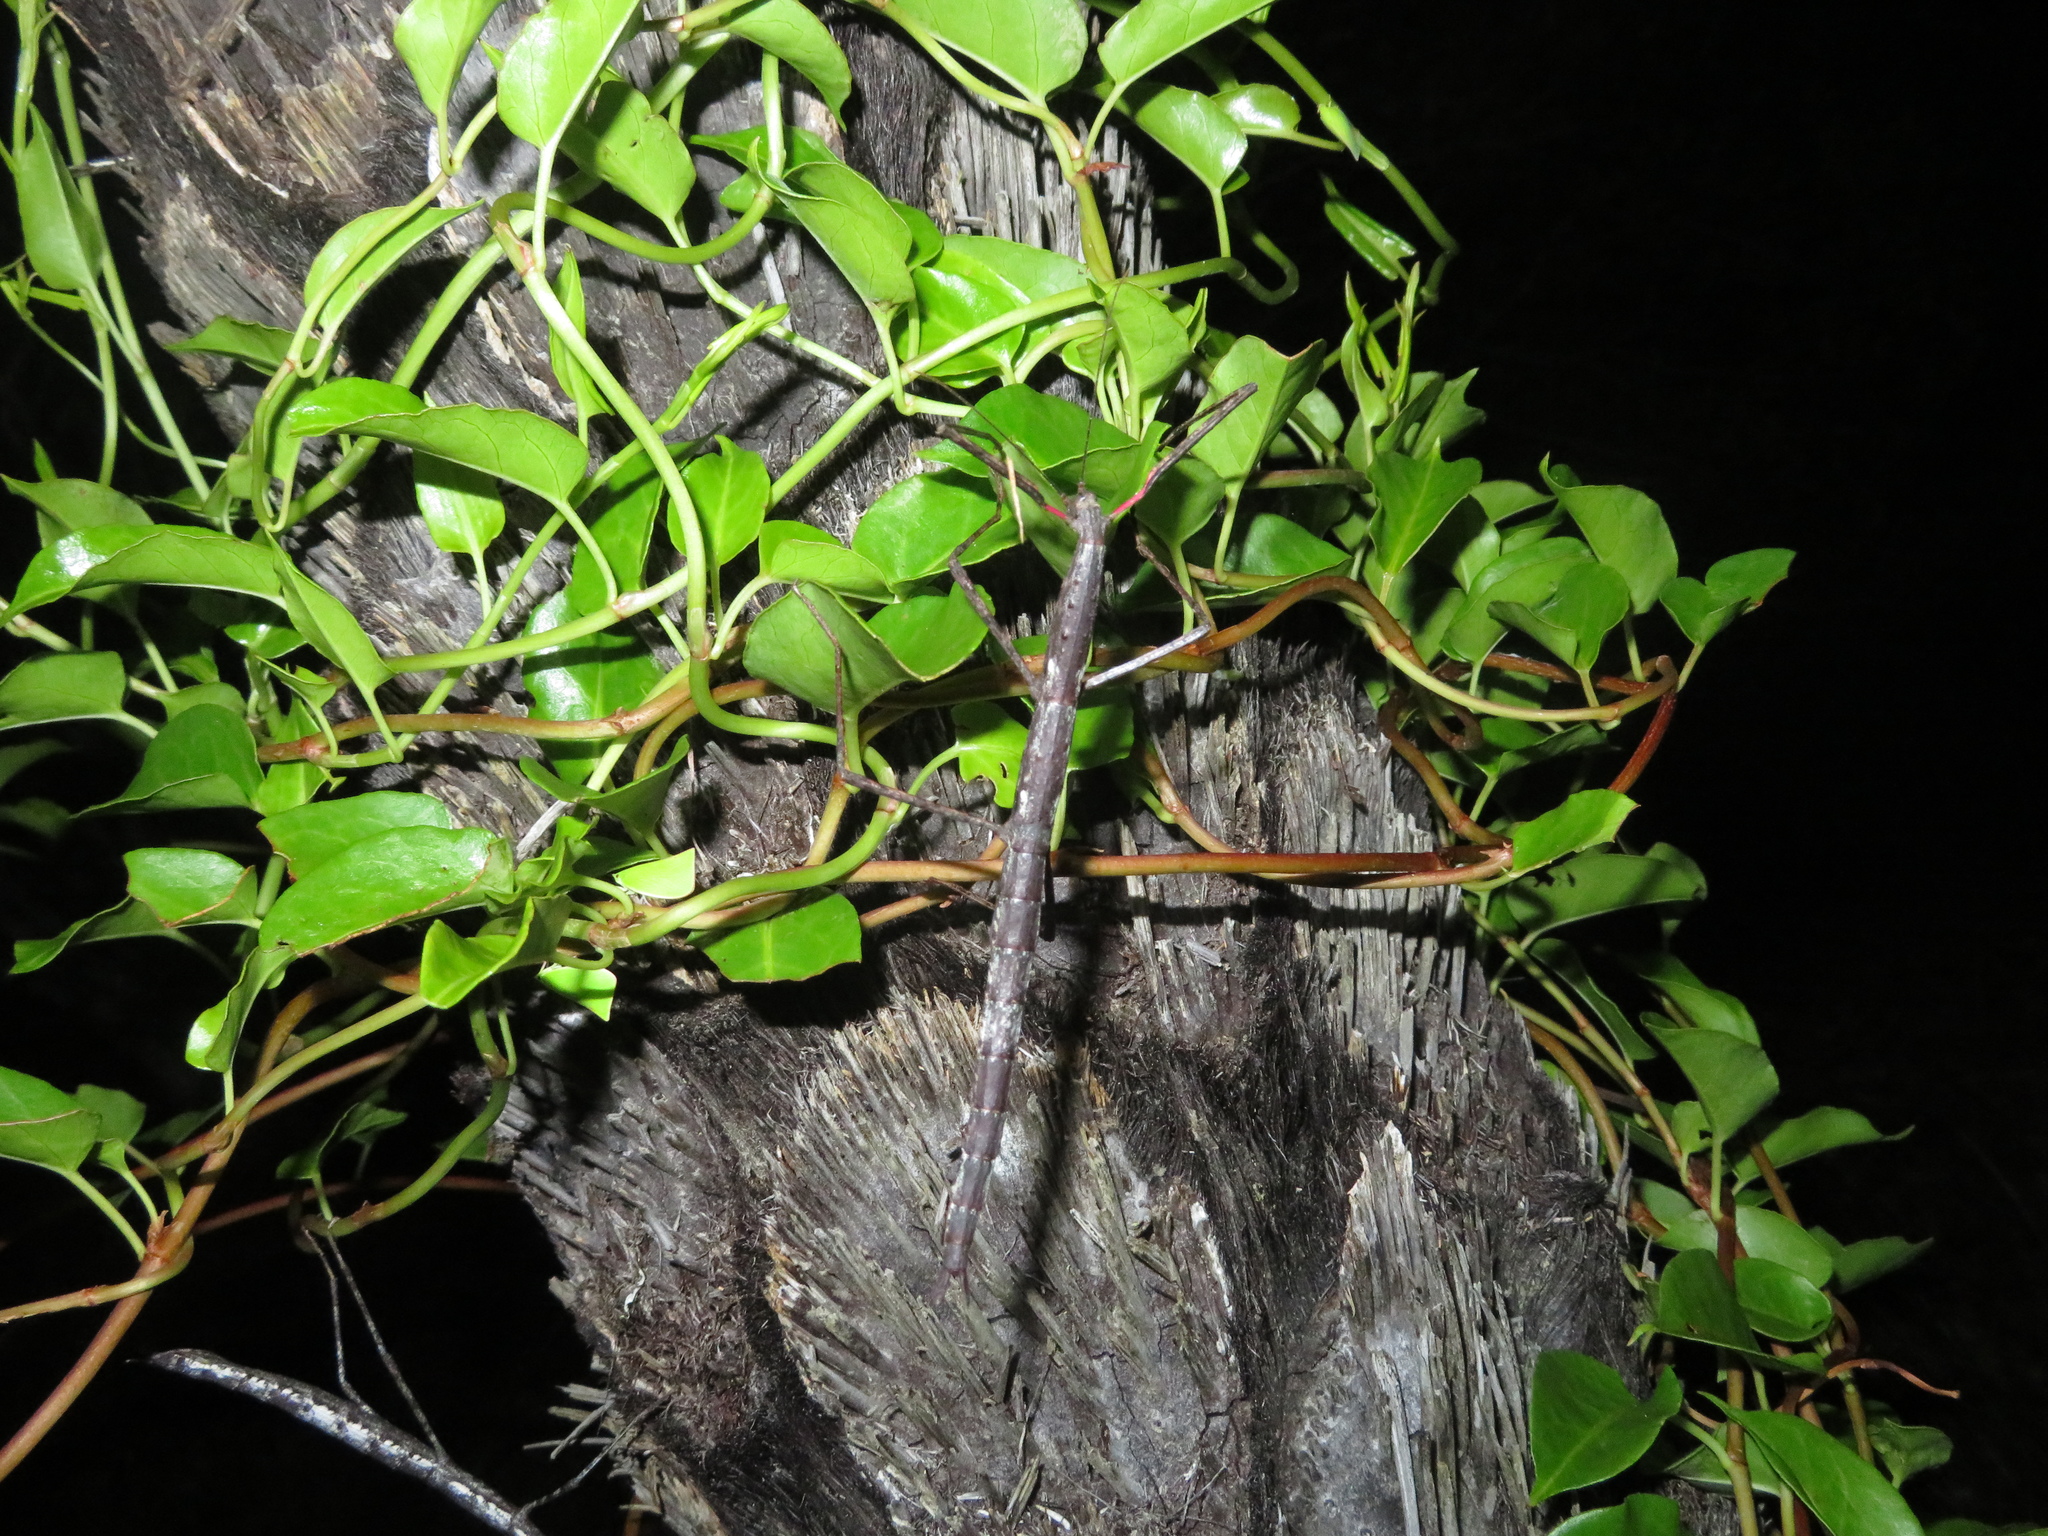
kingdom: Animalia
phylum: Arthropoda
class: Insecta
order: Phasmida
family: Phasmatidae
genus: Clitarchus
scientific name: Clitarchus hookeri
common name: Smooth stick insect
